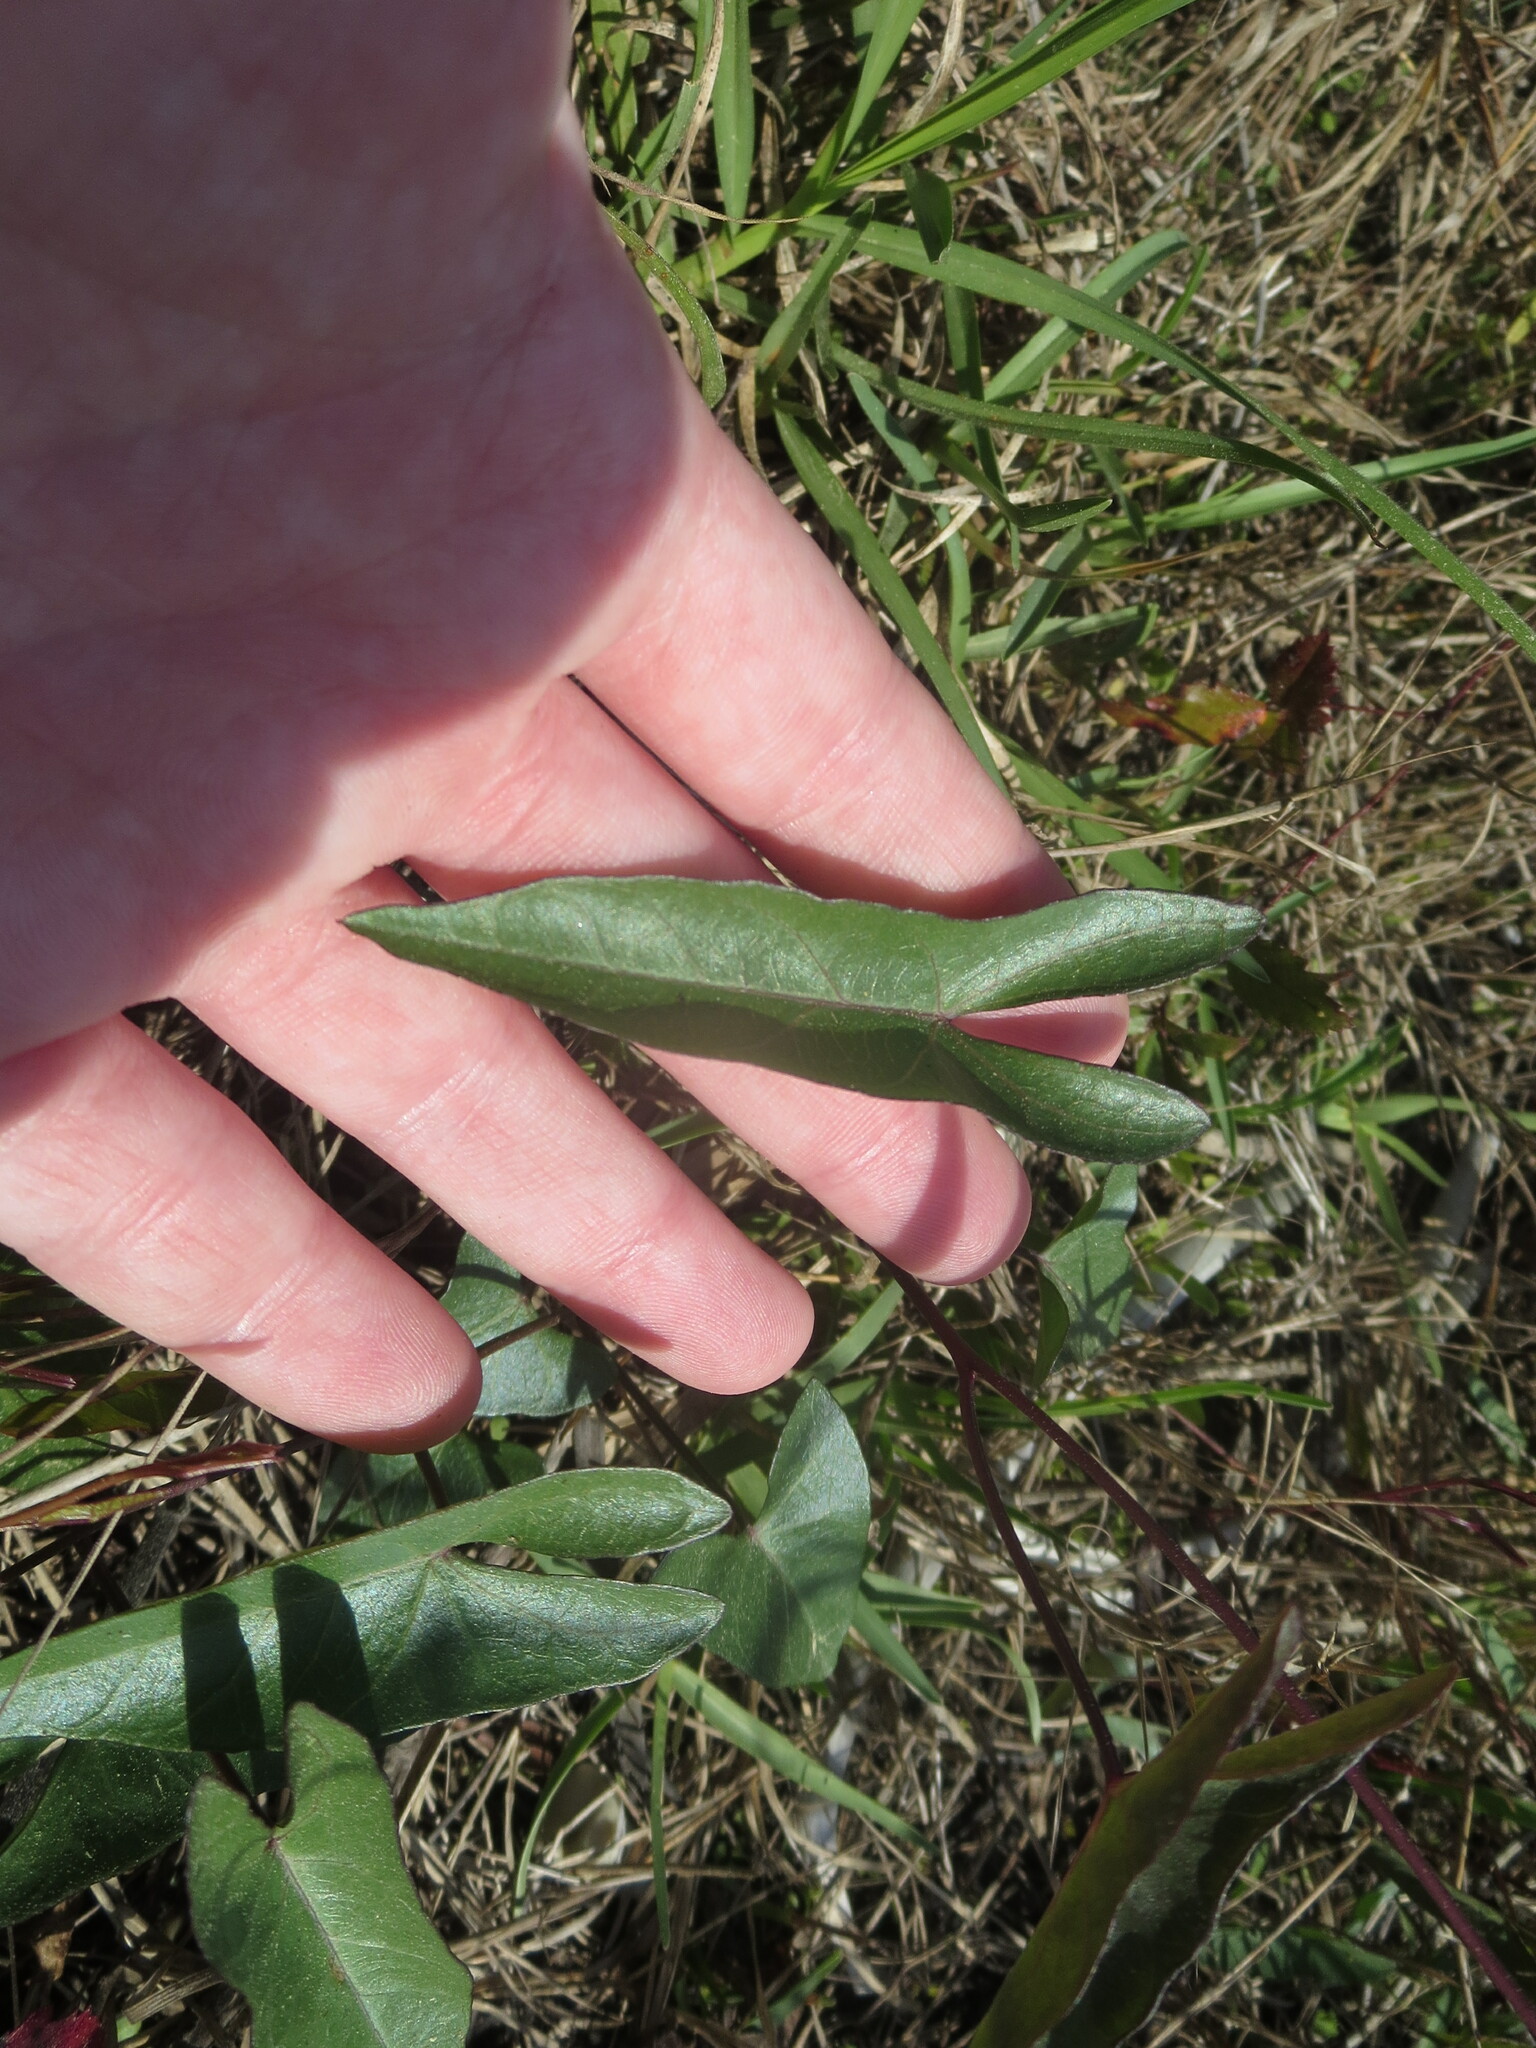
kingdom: Plantae
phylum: Tracheophyta
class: Magnoliopsida
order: Solanales
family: Convolvulaceae
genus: Ipomoea
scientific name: Ipomoea sagittata
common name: Saltmarsh morning glory
